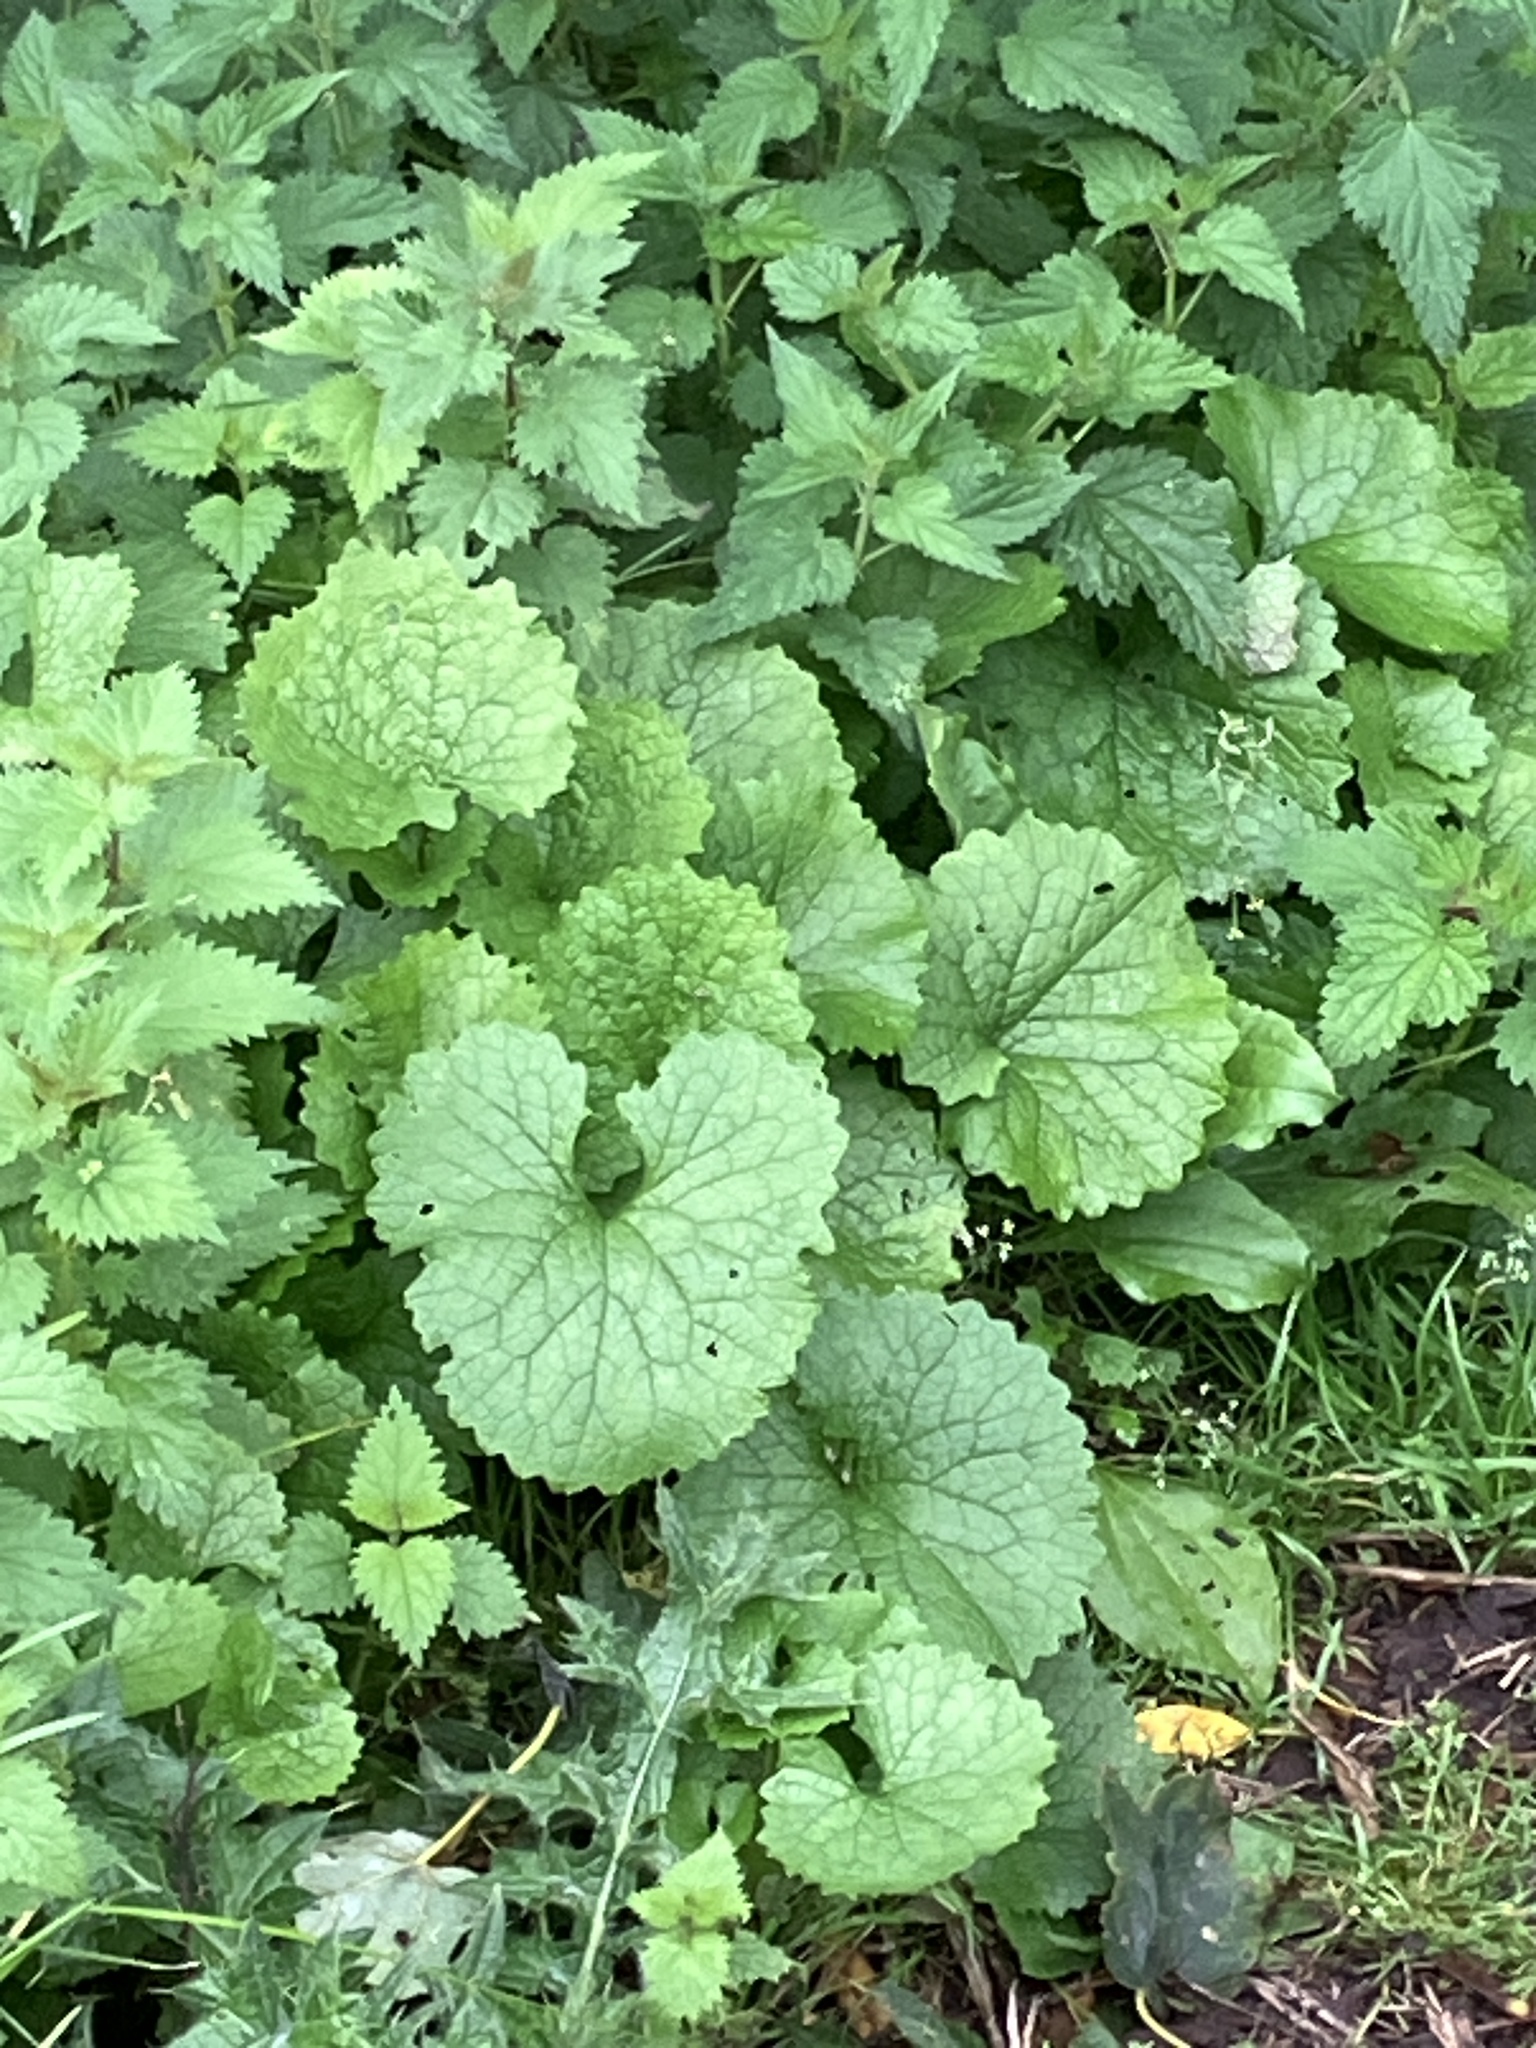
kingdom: Plantae
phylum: Tracheophyta
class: Magnoliopsida
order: Brassicales
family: Brassicaceae
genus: Alliaria
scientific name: Alliaria petiolata
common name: Garlic mustard
